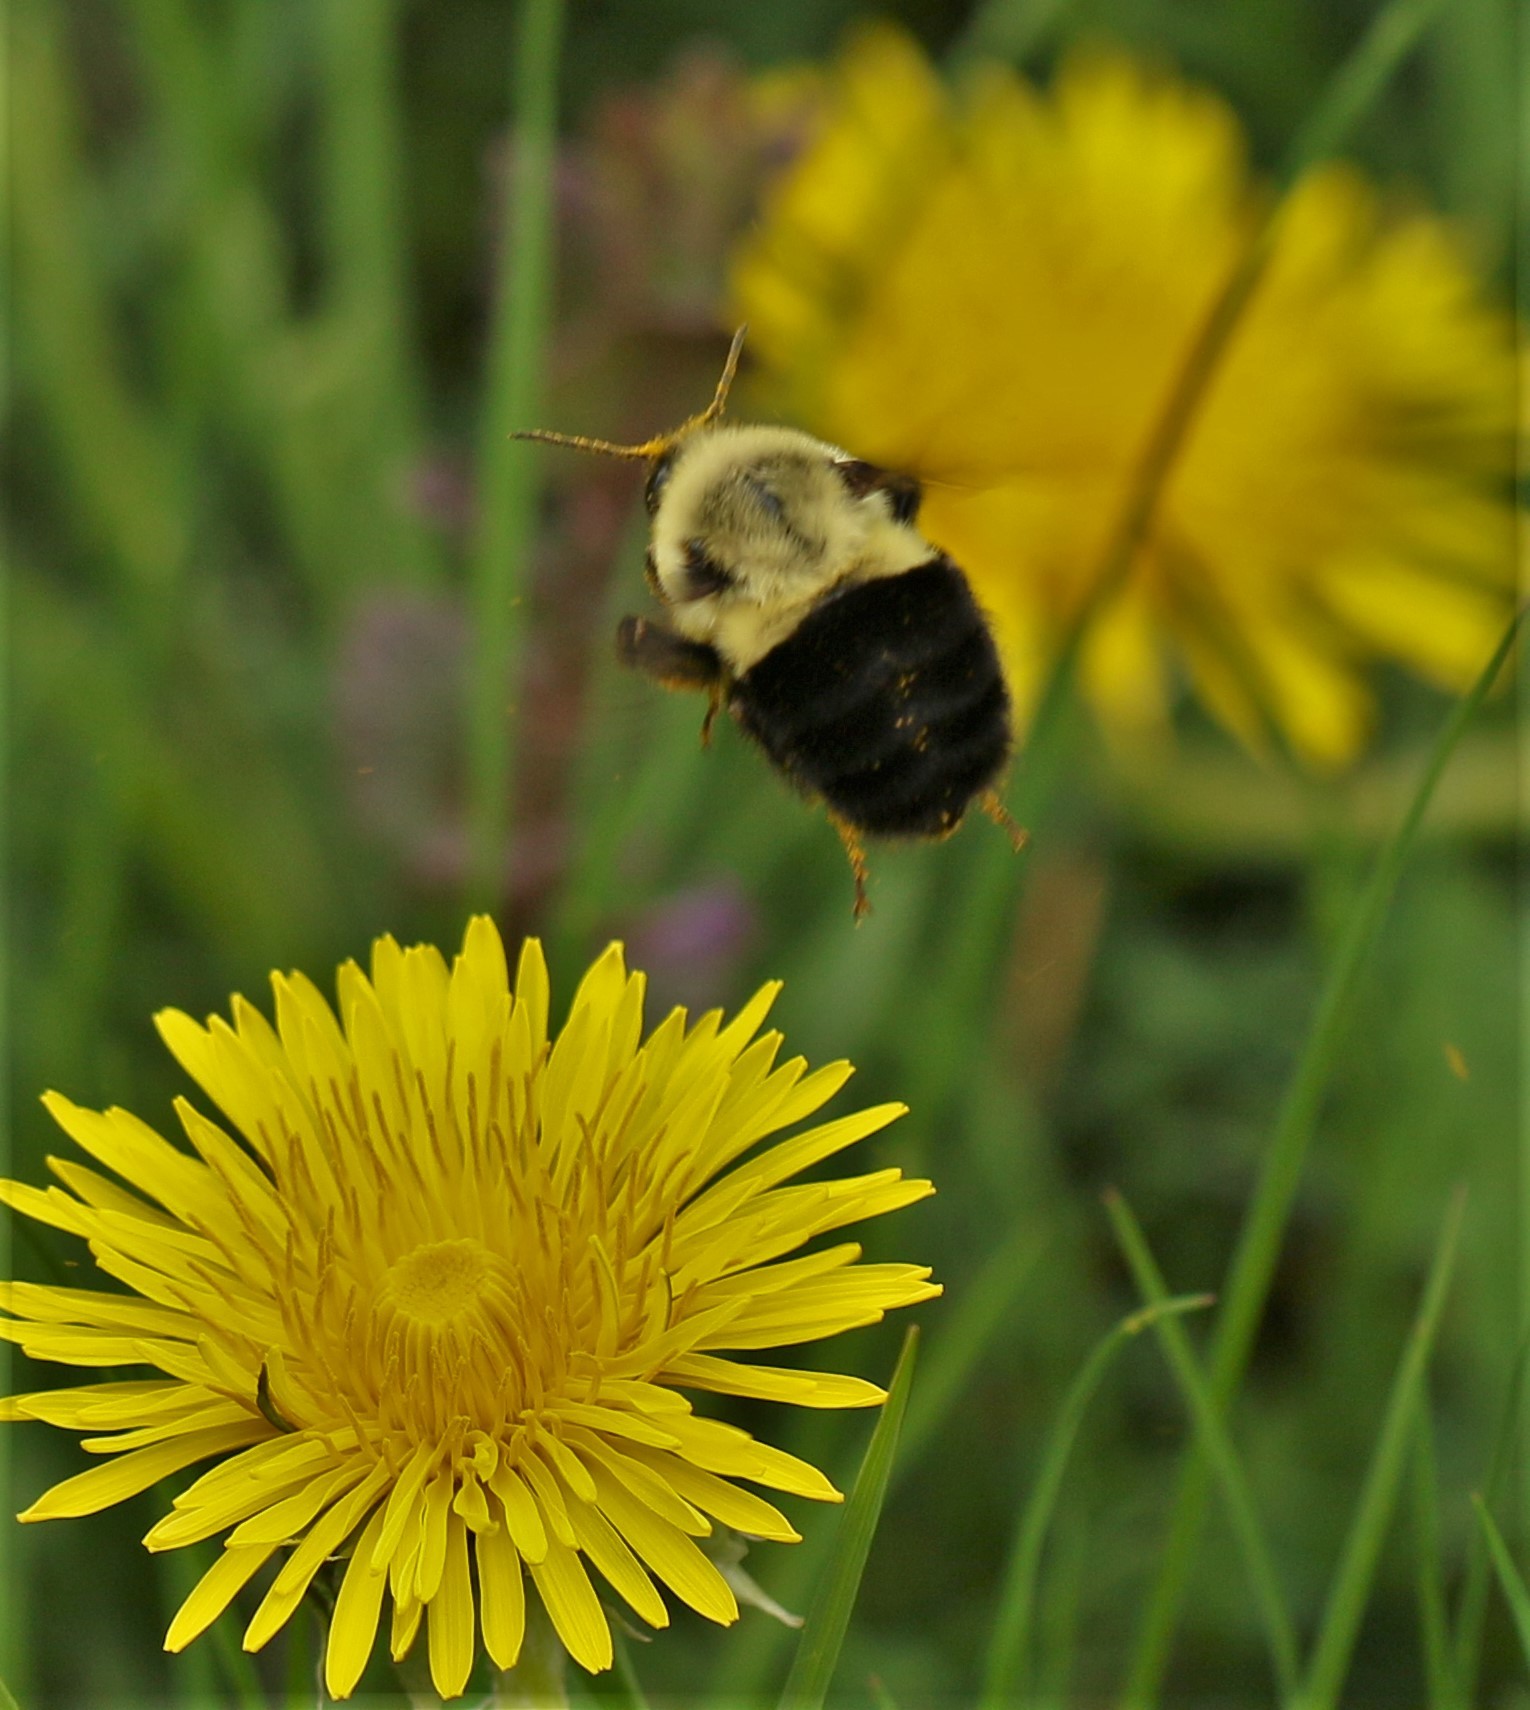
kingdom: Animalia
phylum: Arthropoda
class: Insecta
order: Hymenoptera
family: Apidae
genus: Bombus
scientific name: Bombus impatiens
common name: Common eastern bumble bee
